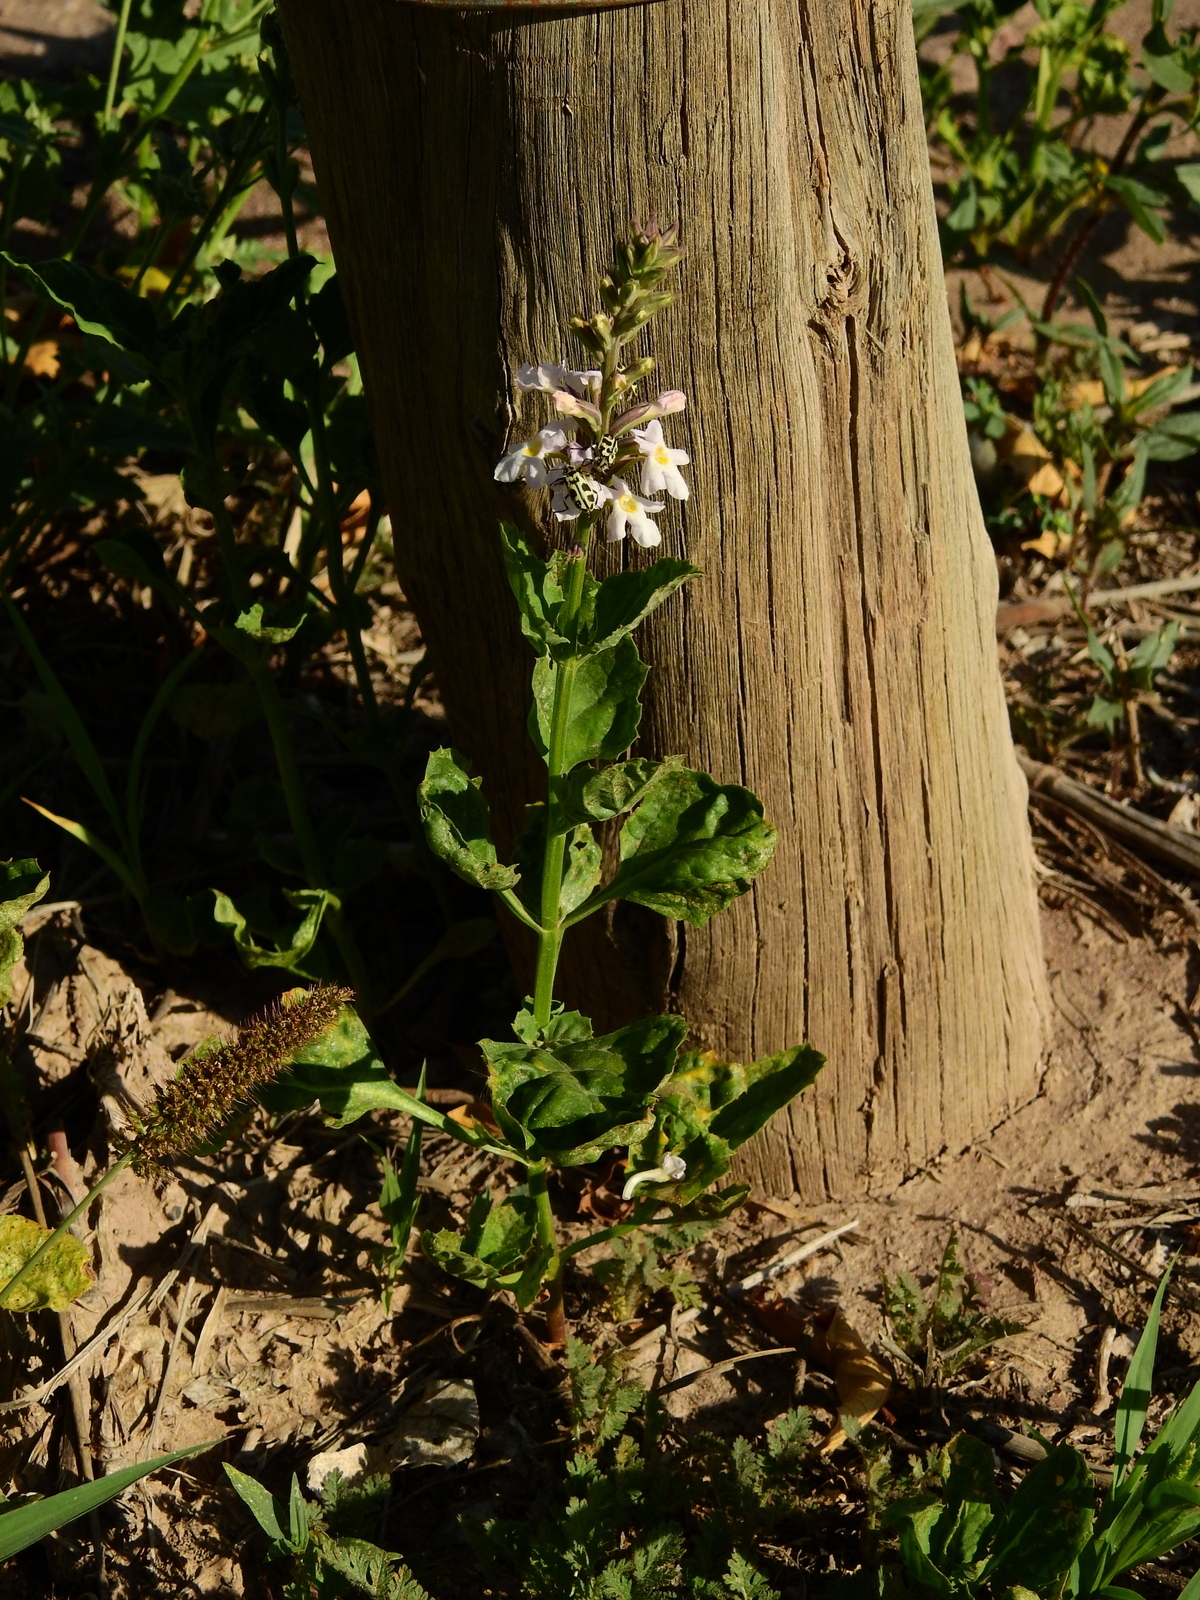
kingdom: Plantae
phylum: Tracheophyta
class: Magnoliopsida
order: Lamiales
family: Verbenaceae
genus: Pitraea
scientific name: Pitraea cuneato-ovata
